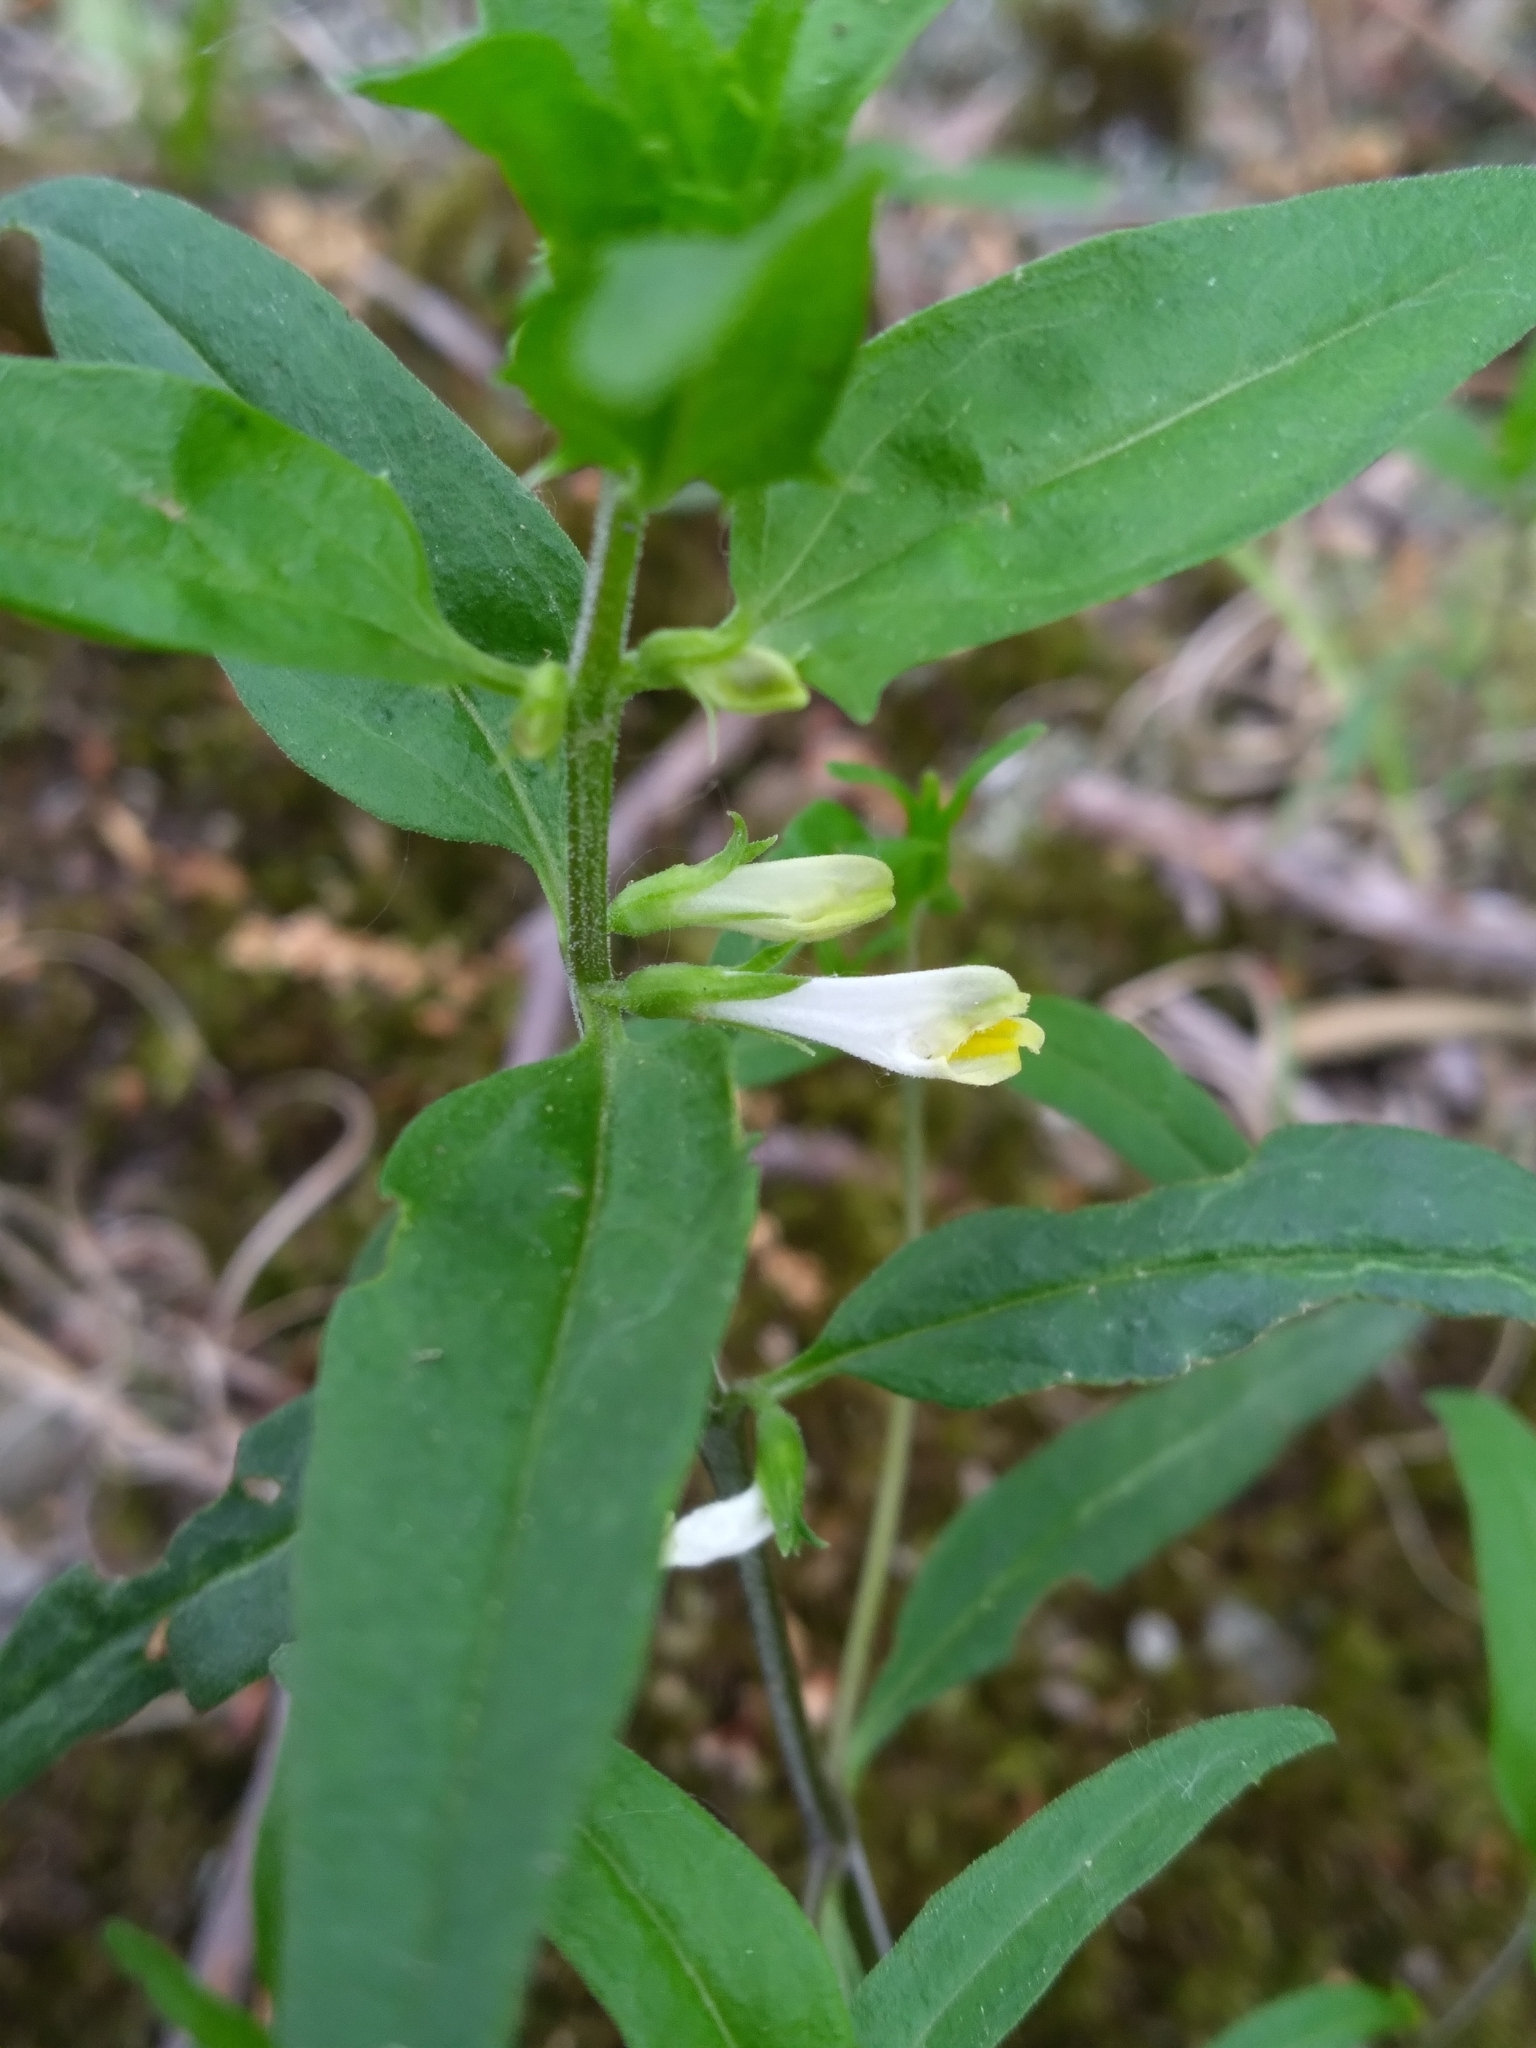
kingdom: Plantae
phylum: Tracheophyta
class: Magnoliopsida
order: Lamiales
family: Orobanchaceae
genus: Melampyrum
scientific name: Melampyrum lineare
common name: American cow-wheat
